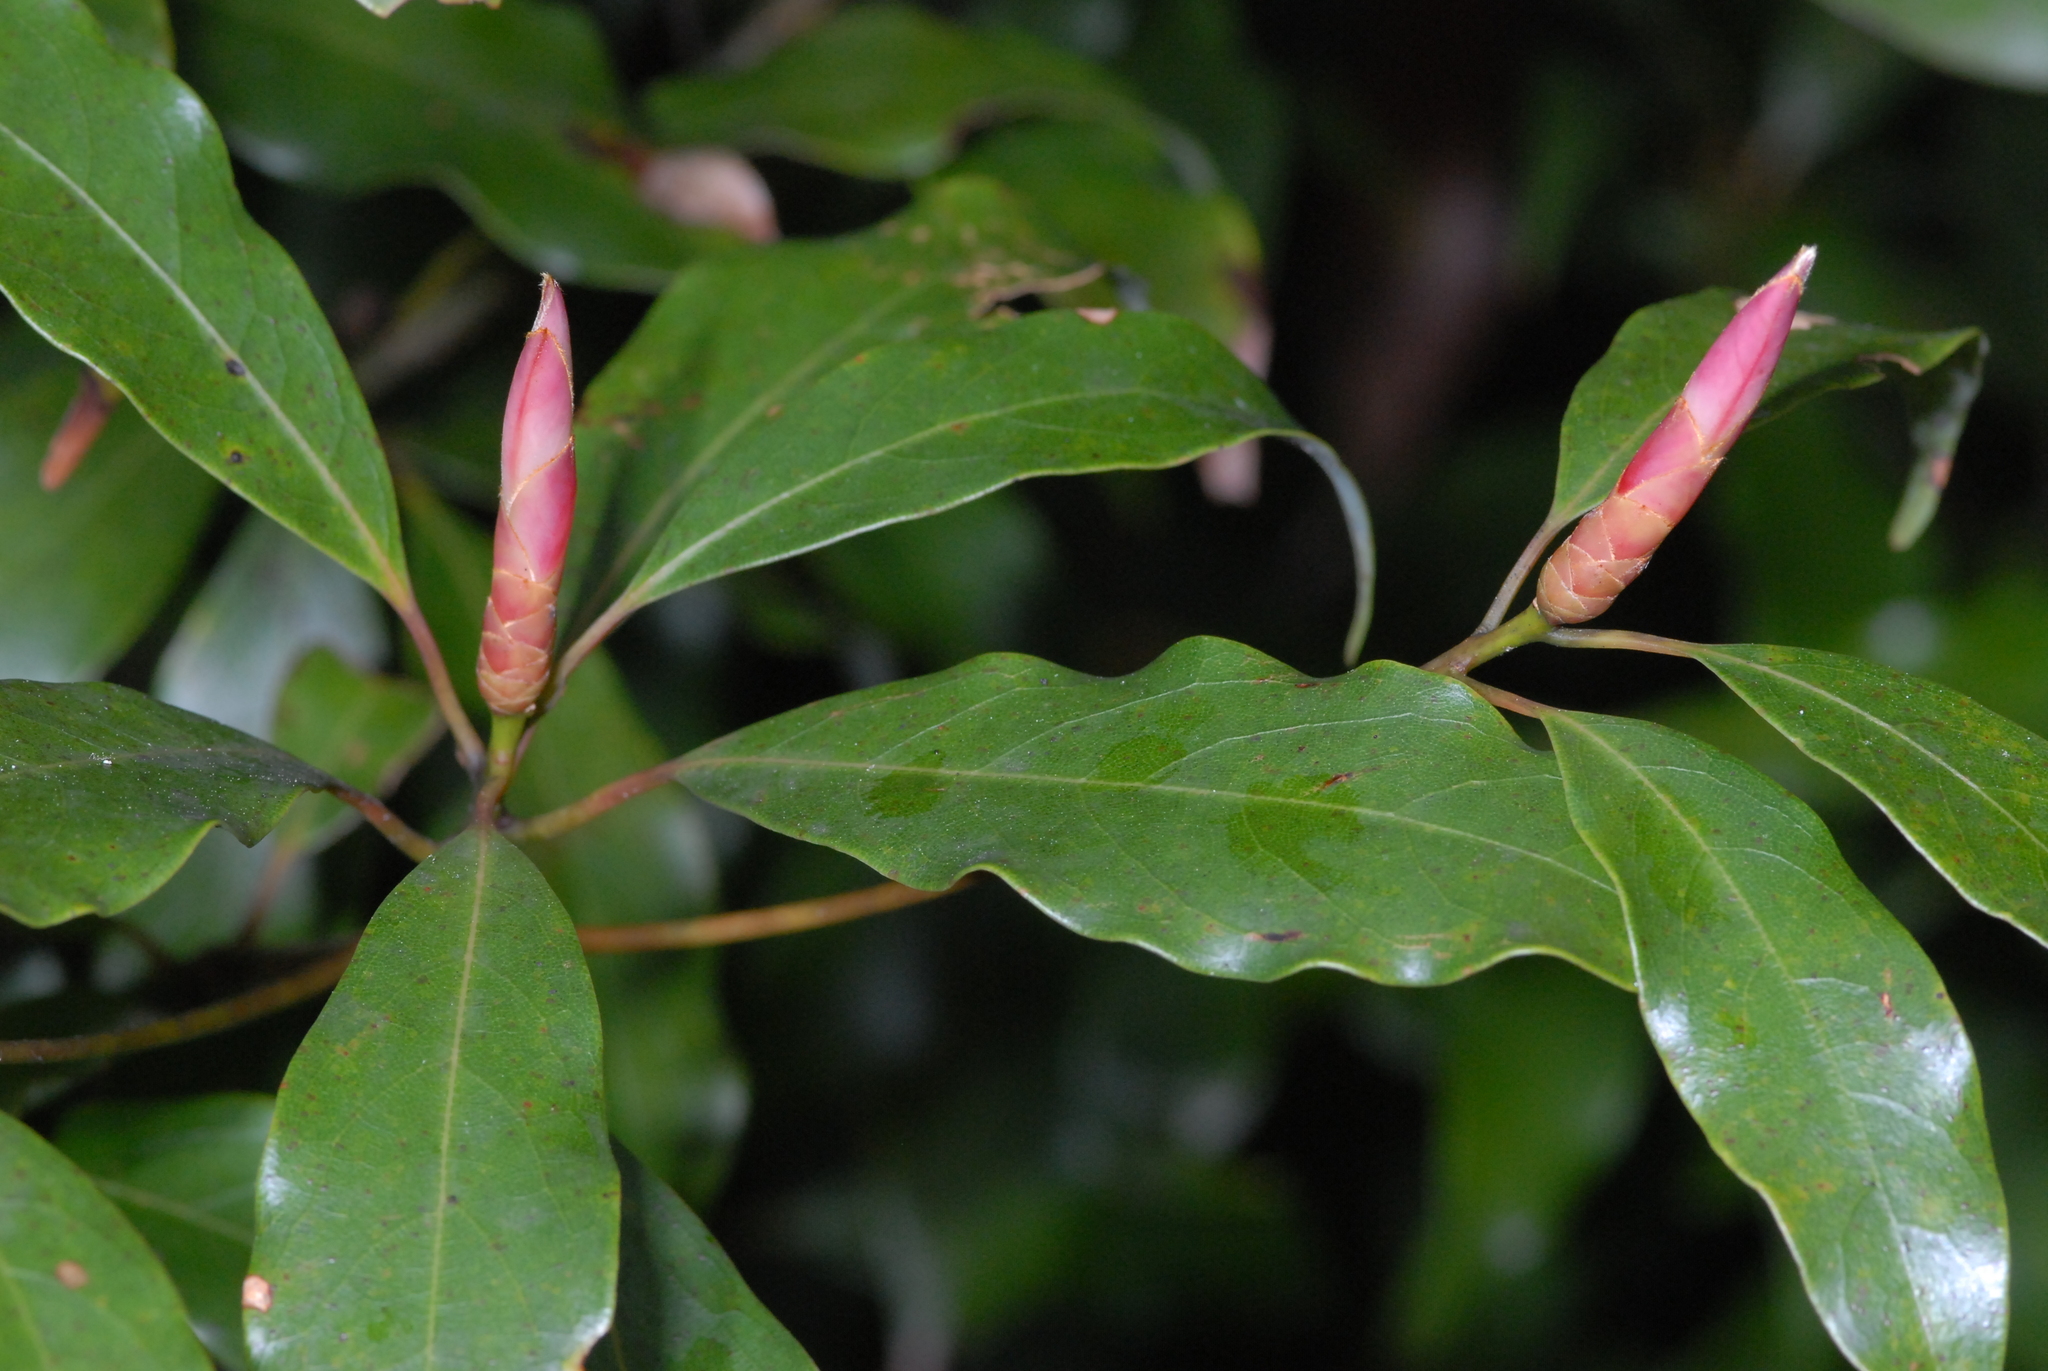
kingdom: Plantae
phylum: Tracheophyta
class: Magnoliopsida
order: Laurales
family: Lauraceae
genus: Machilus
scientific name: Machilus thunbergii
